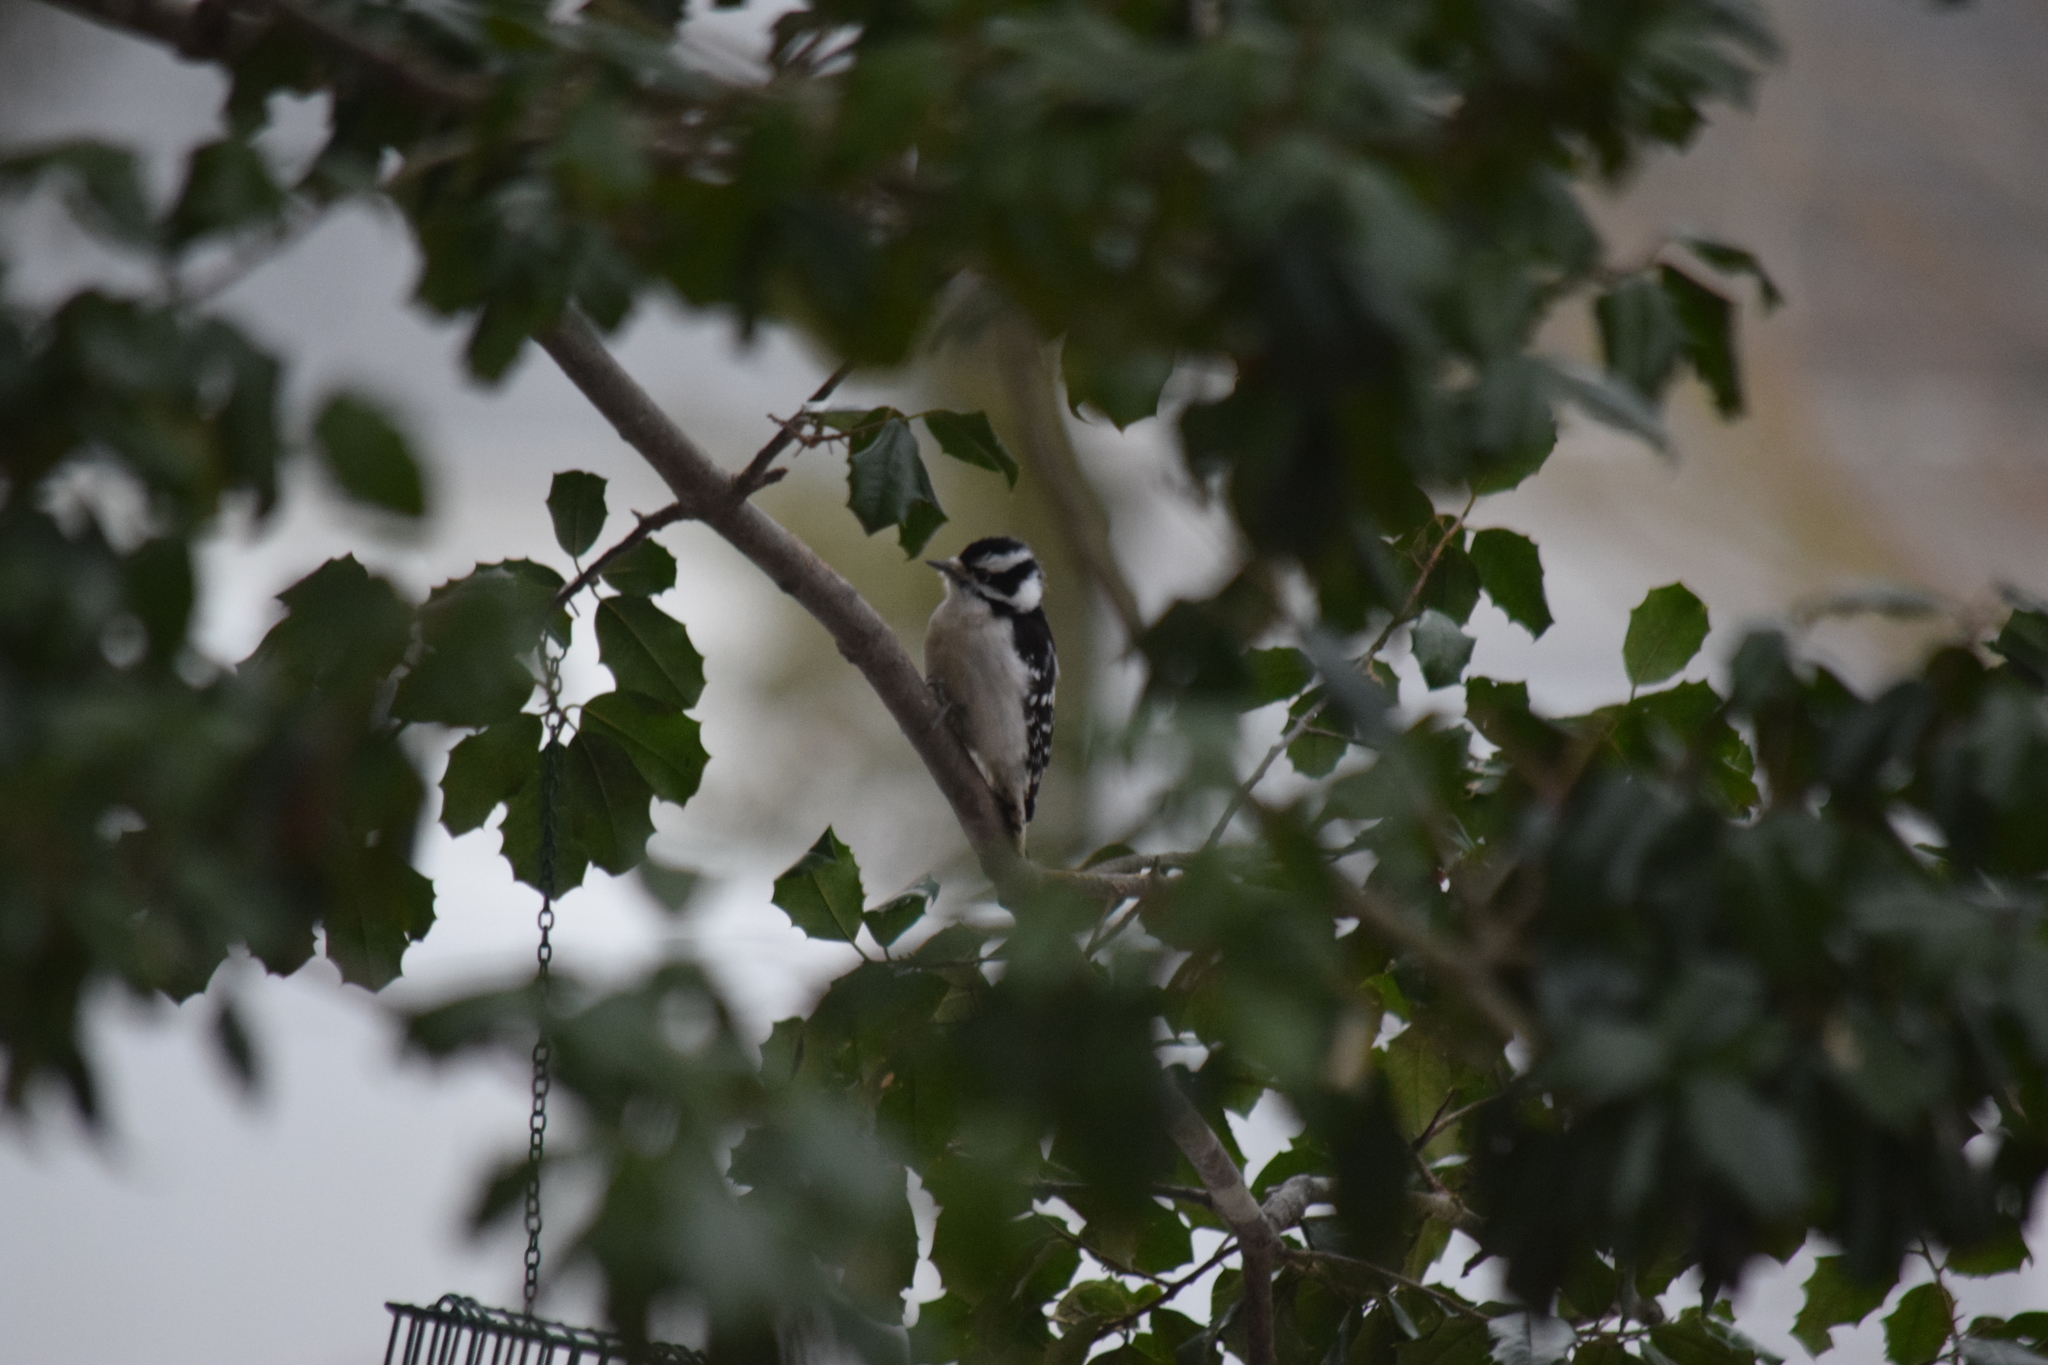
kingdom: Animalia
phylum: Chordata
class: Aves
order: Piciformes
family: Picidae
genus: Dryobates
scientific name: Dryobates pubescens
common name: Downy woodpecker
